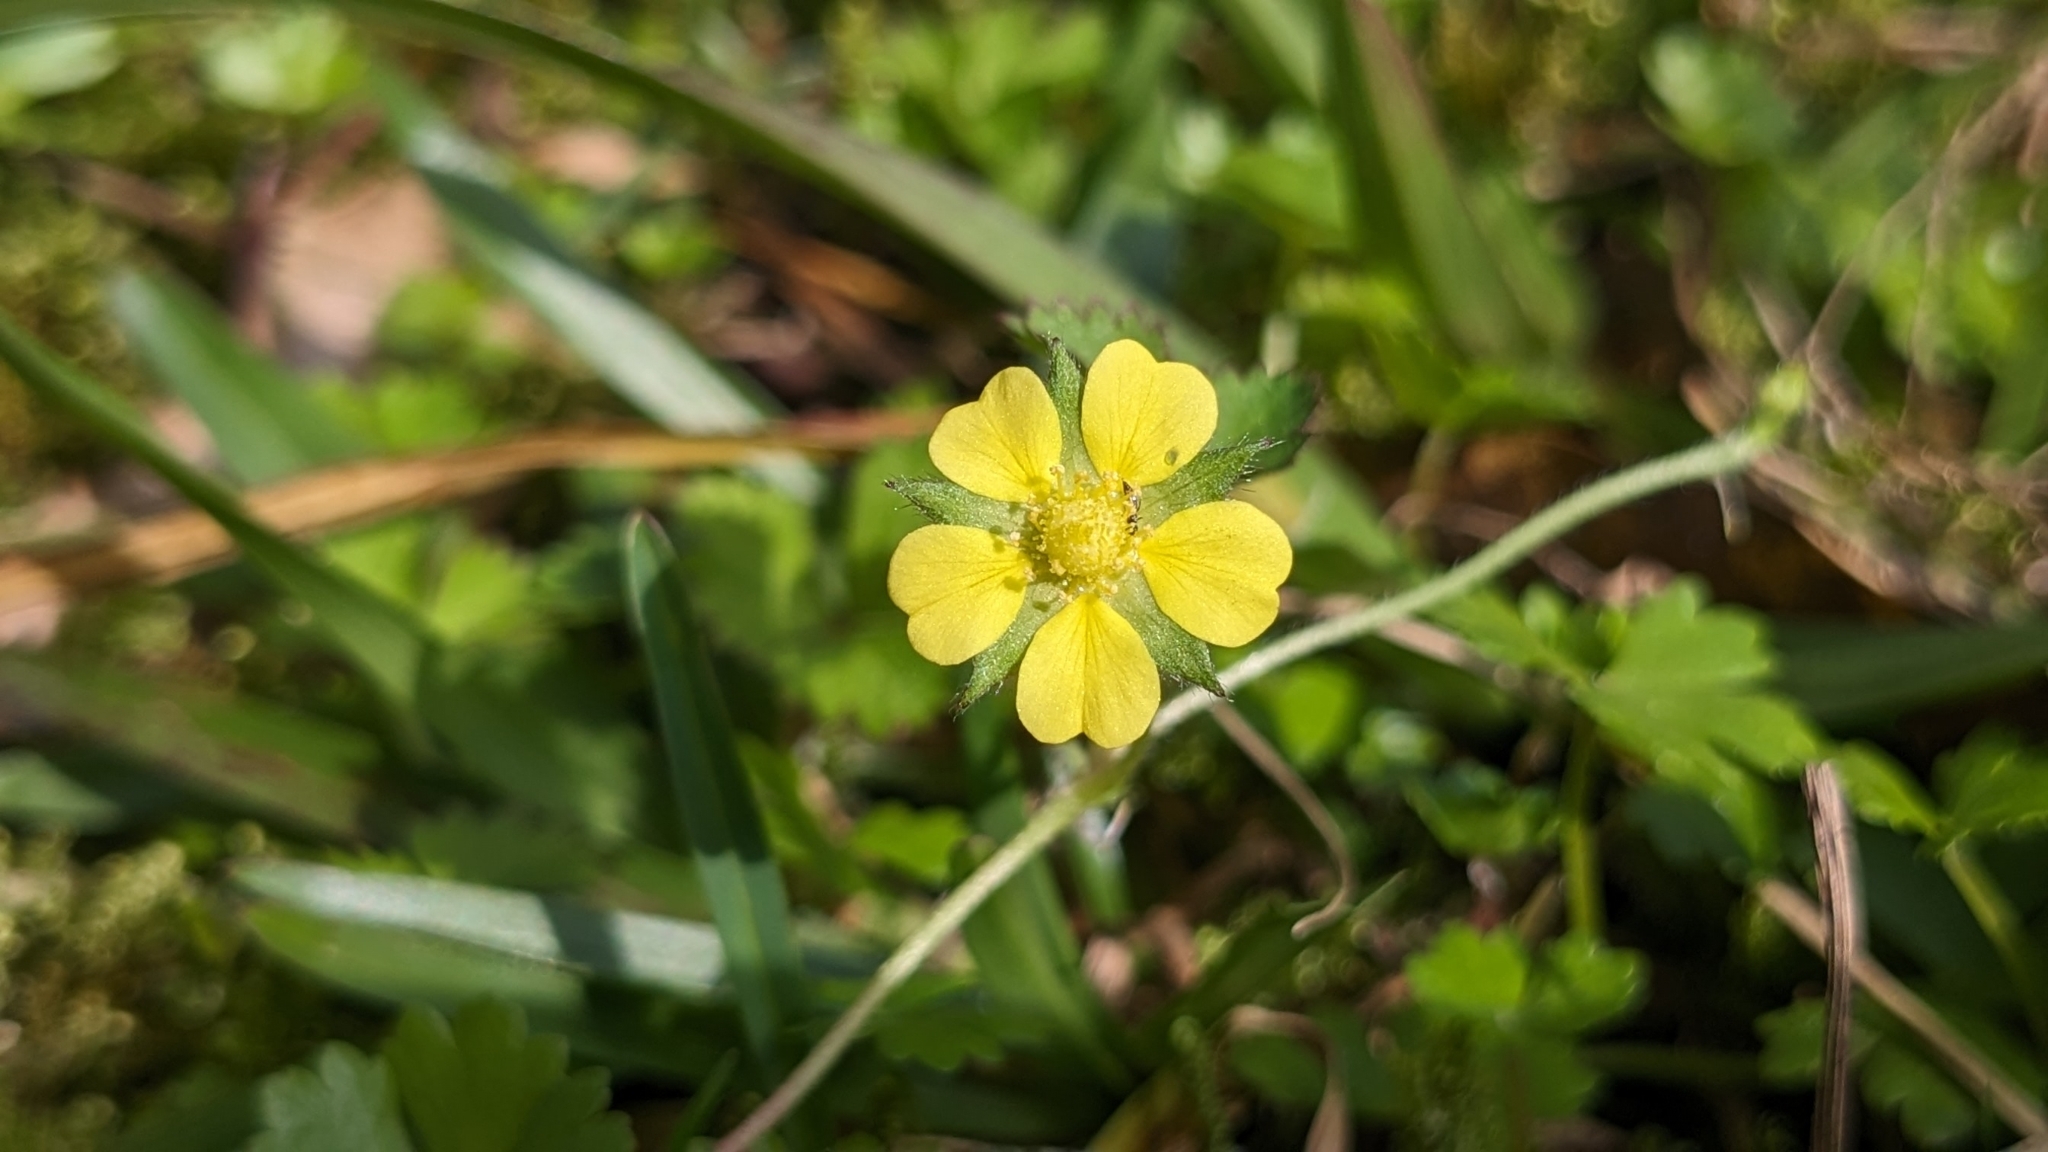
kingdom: Plantae
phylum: Tracheophyta
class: Magnoliopsida
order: Rosales
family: Rosaceae
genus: Potentilla
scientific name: Potentilla wallichiana
